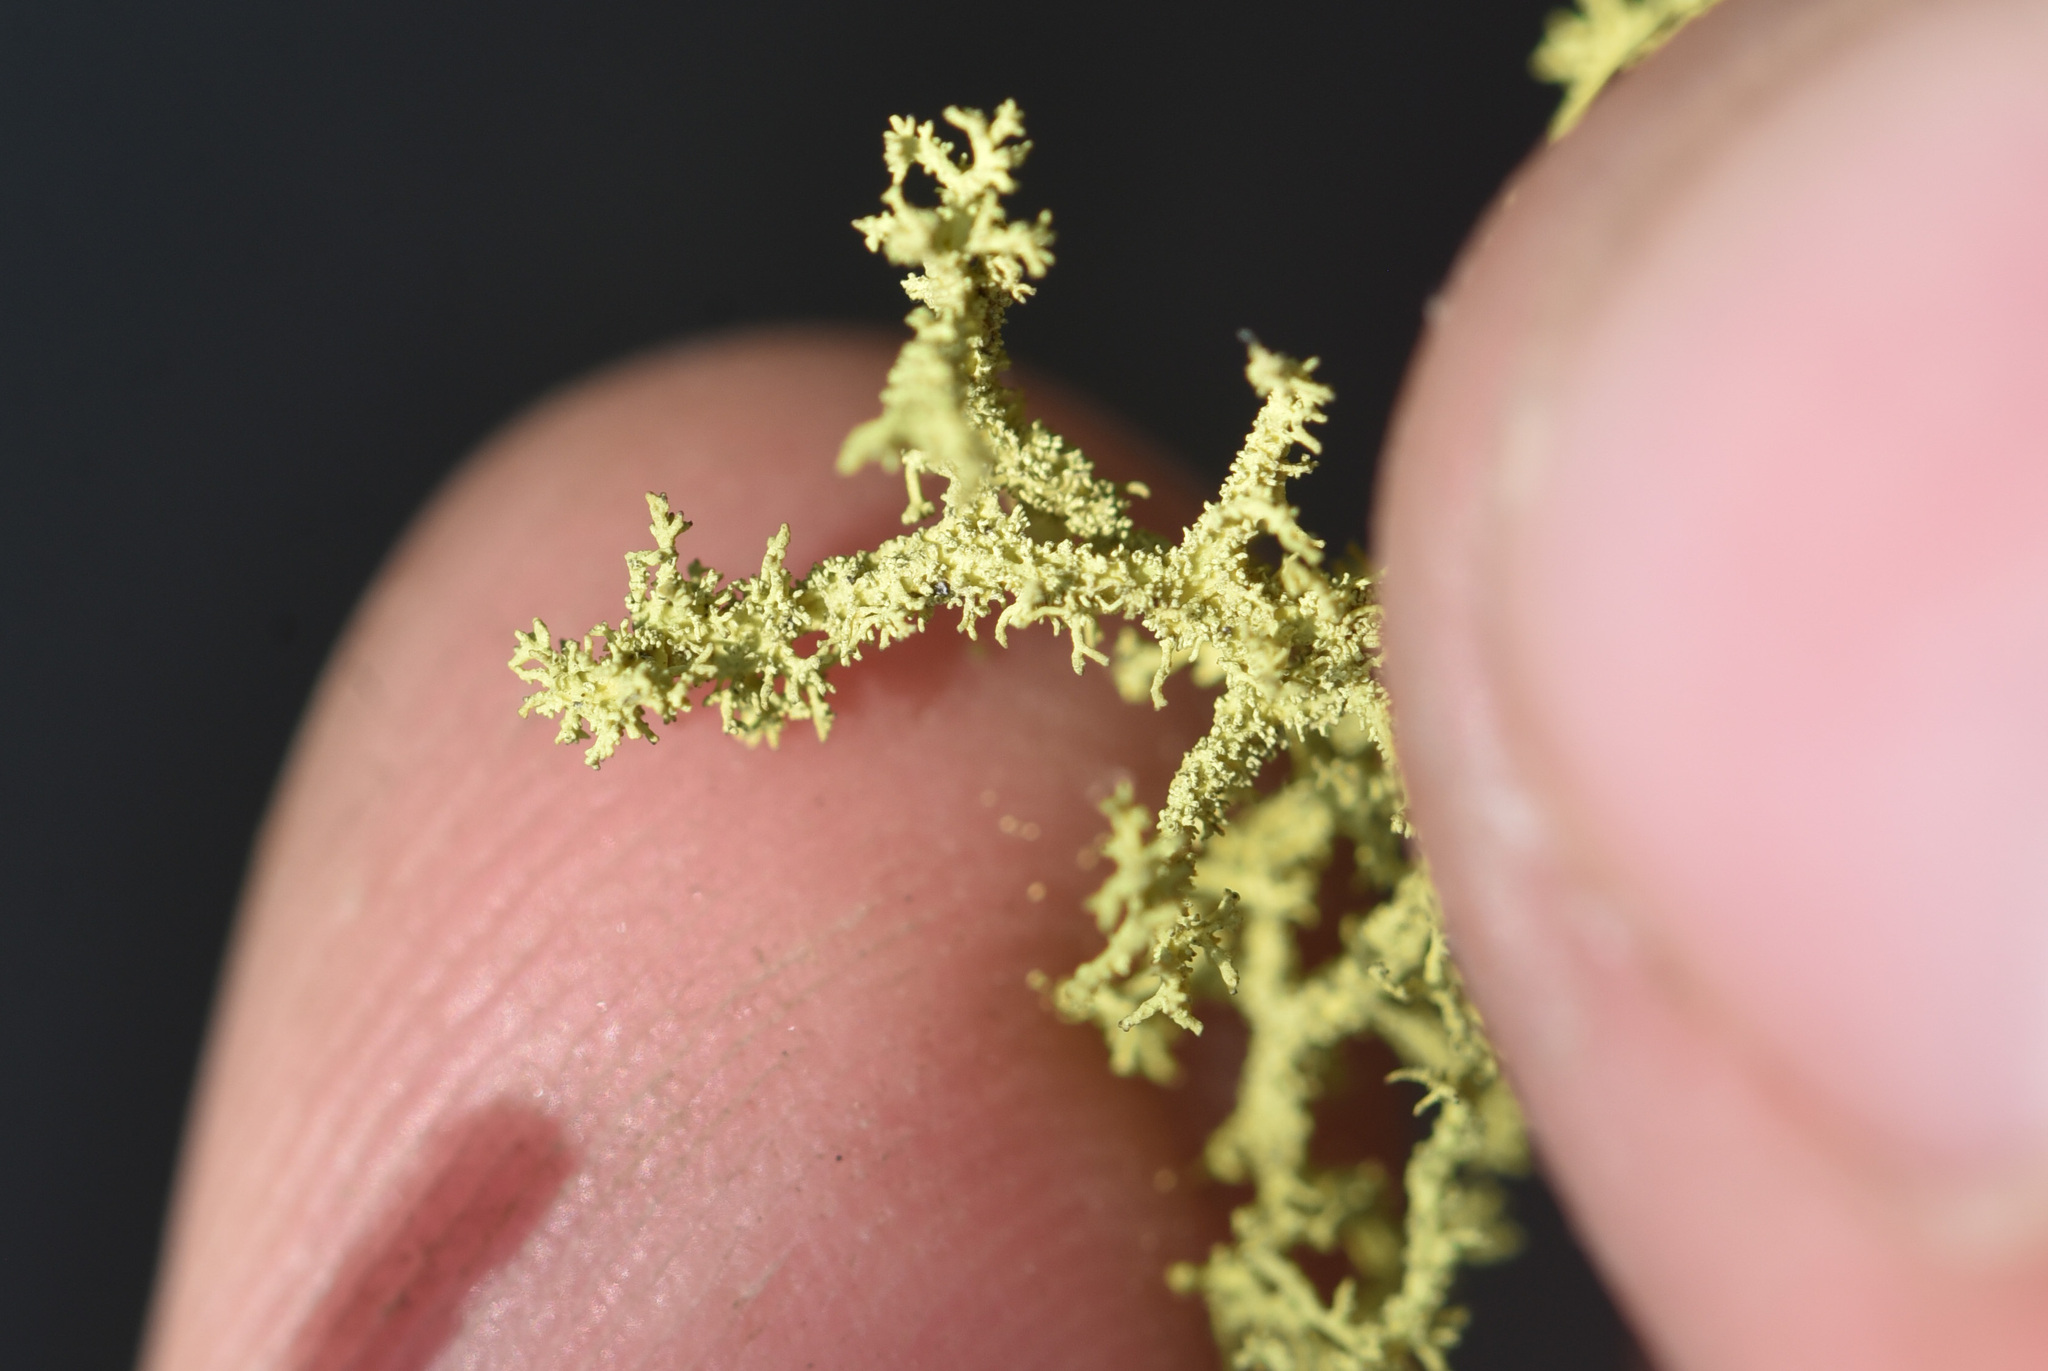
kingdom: Fungi
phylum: Ascomycota
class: Lecanoromycetes
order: Lecanorales
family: Parmeliaceae
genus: Letharia
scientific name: Letharia vulpina
